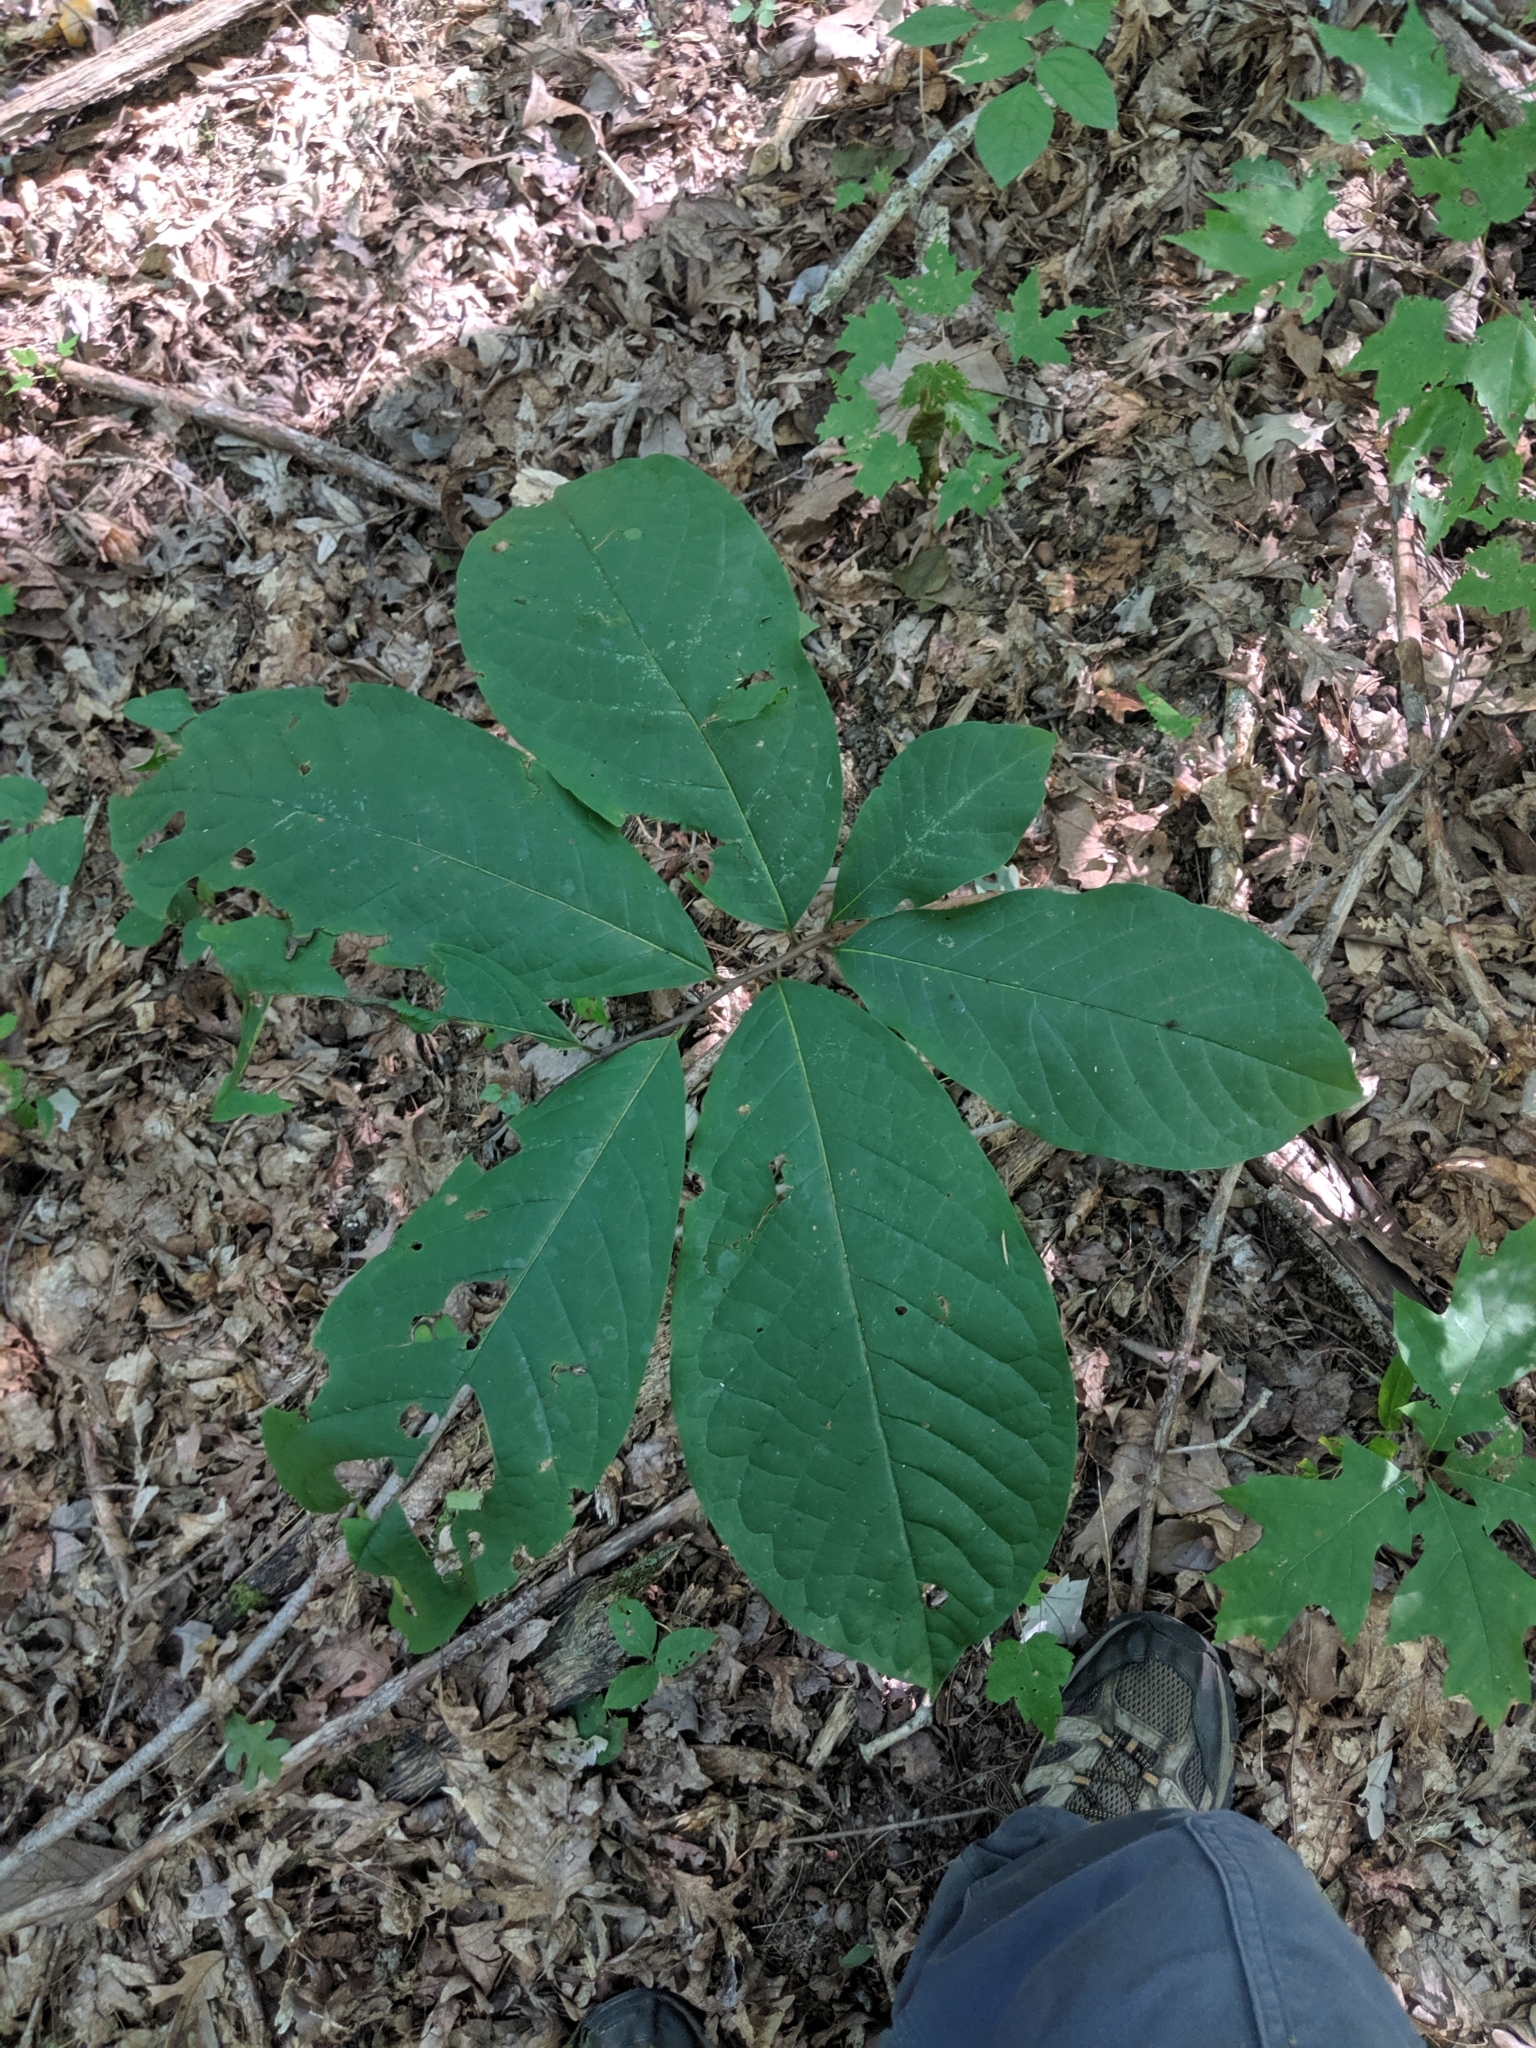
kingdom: Plantae
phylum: Tracheophyta
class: Magnoliopsida
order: Magnoliales
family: Annonaceae
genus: Asimina
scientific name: Asimina triloba
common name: Dog-banana
